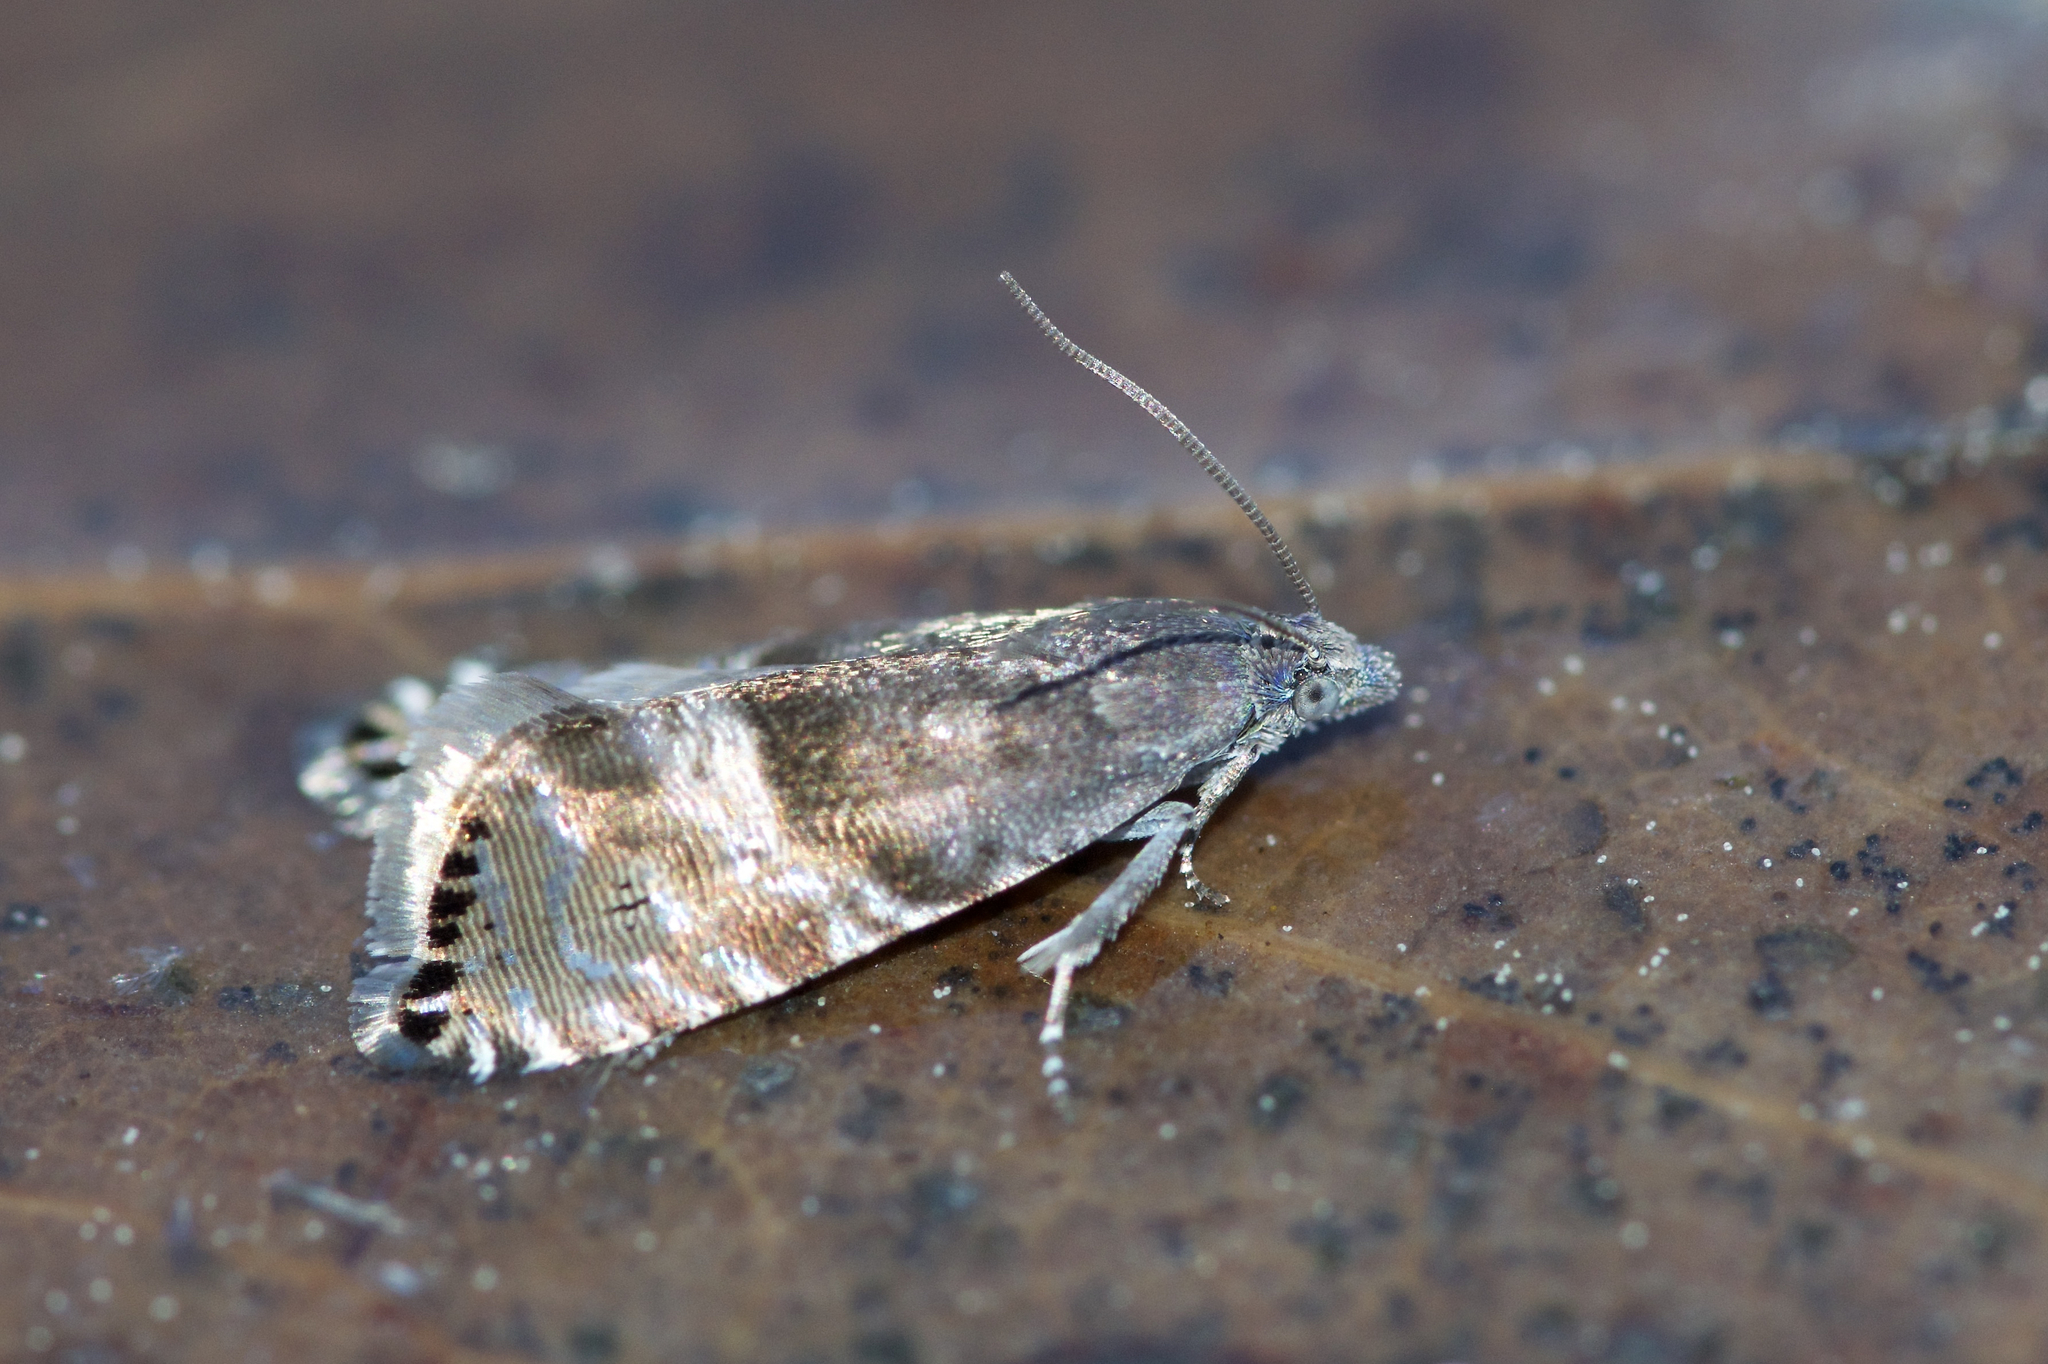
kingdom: Animalia
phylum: Arthropoda
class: Insecta
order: Lepidoptera
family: Tortricidae
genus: Sereda
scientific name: Sereda tautana
